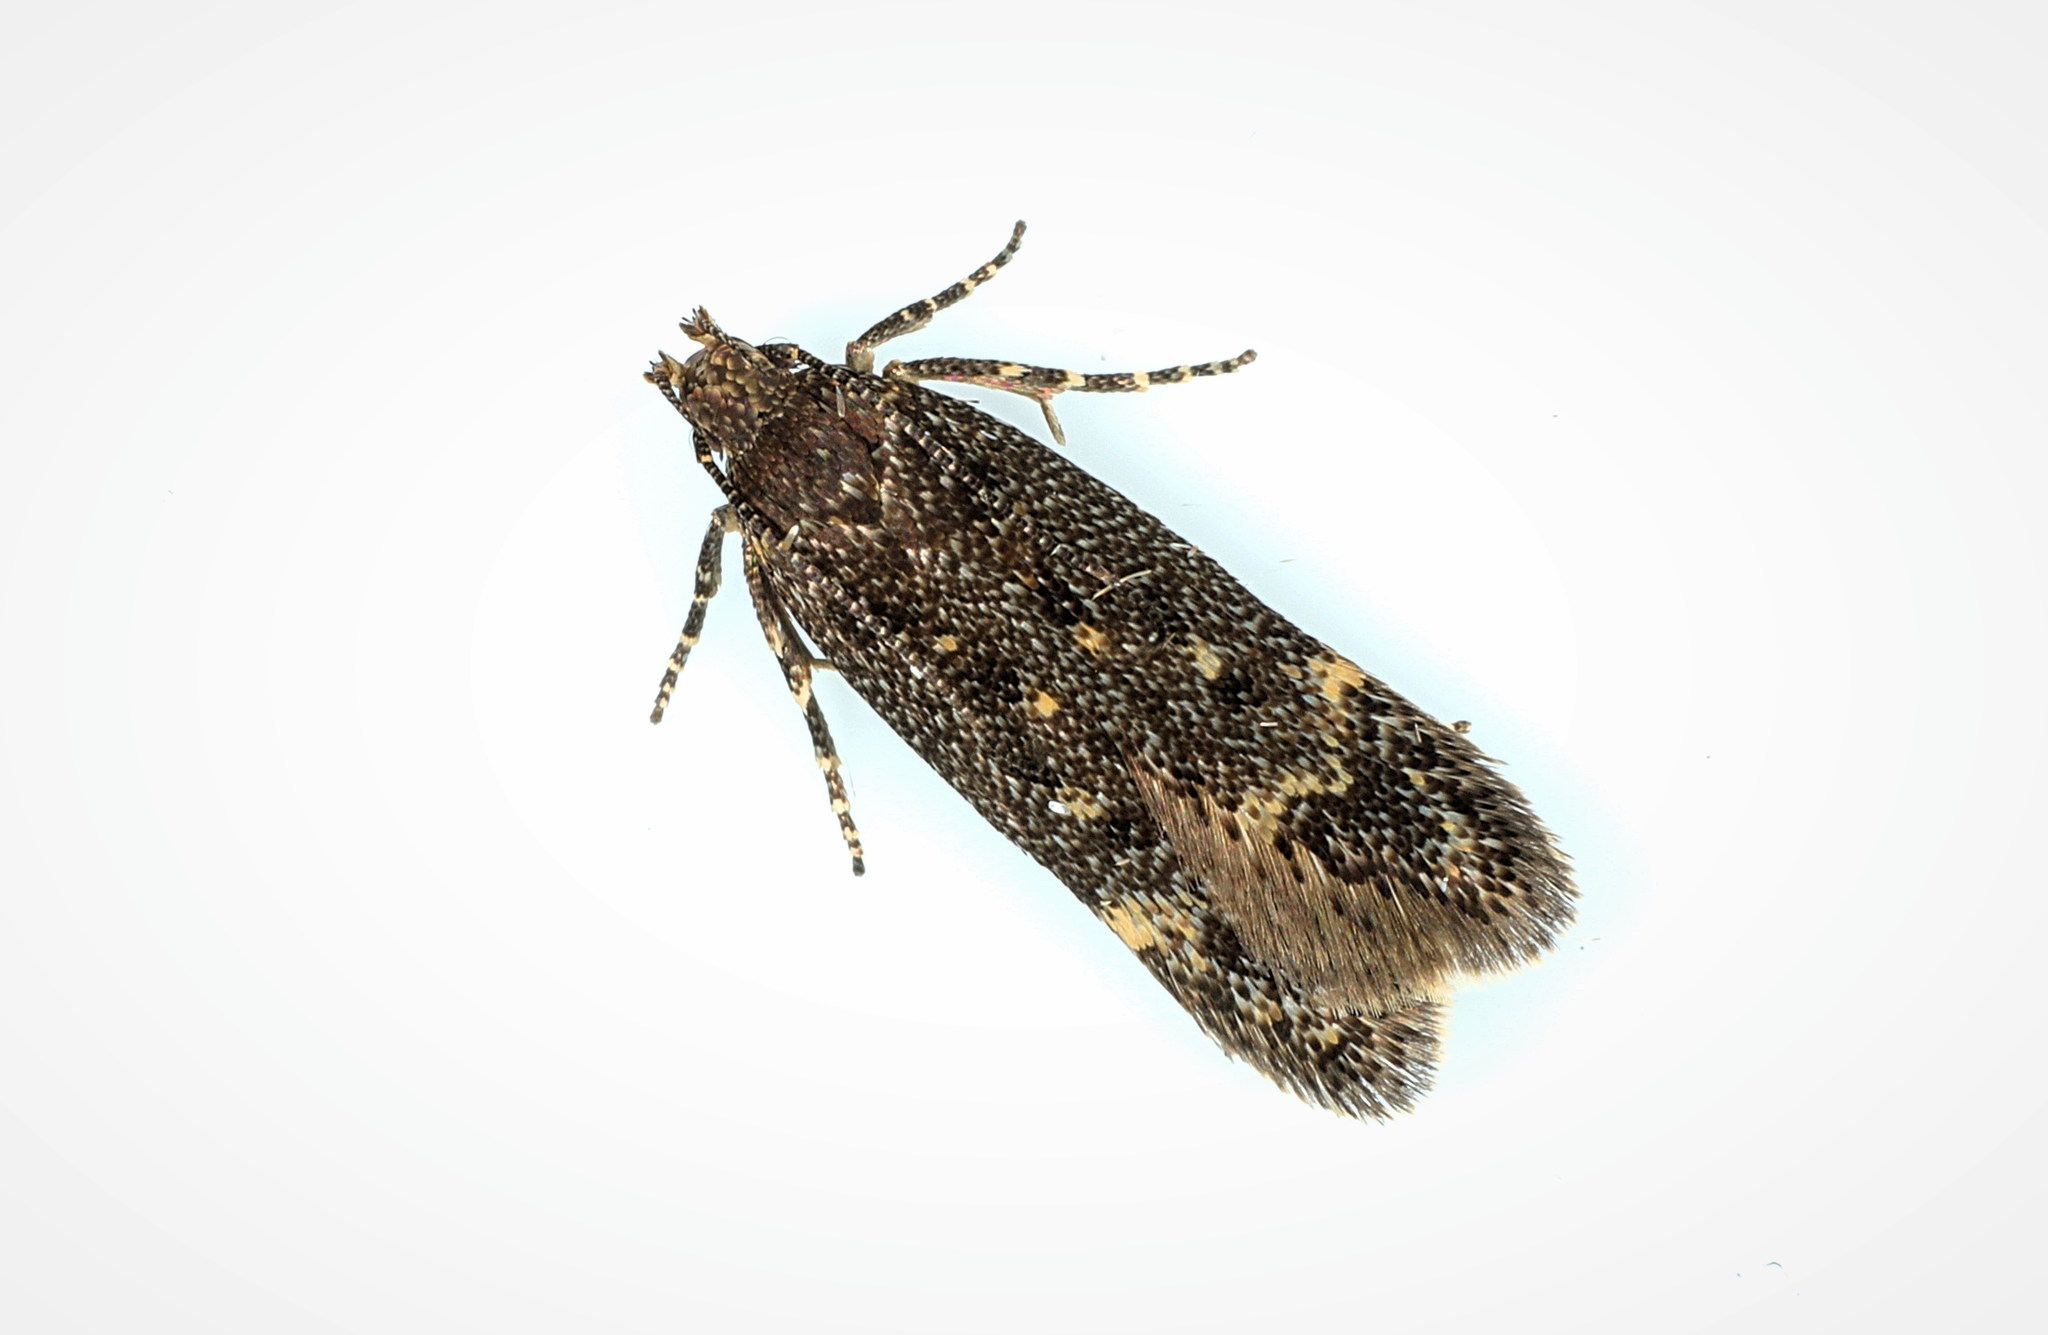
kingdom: Animalia
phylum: Arthropoda
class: Insecta
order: Lepidoptera
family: Gelechiidae
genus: Bryotropha
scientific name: Bryotropha affinis
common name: Dark groundling
